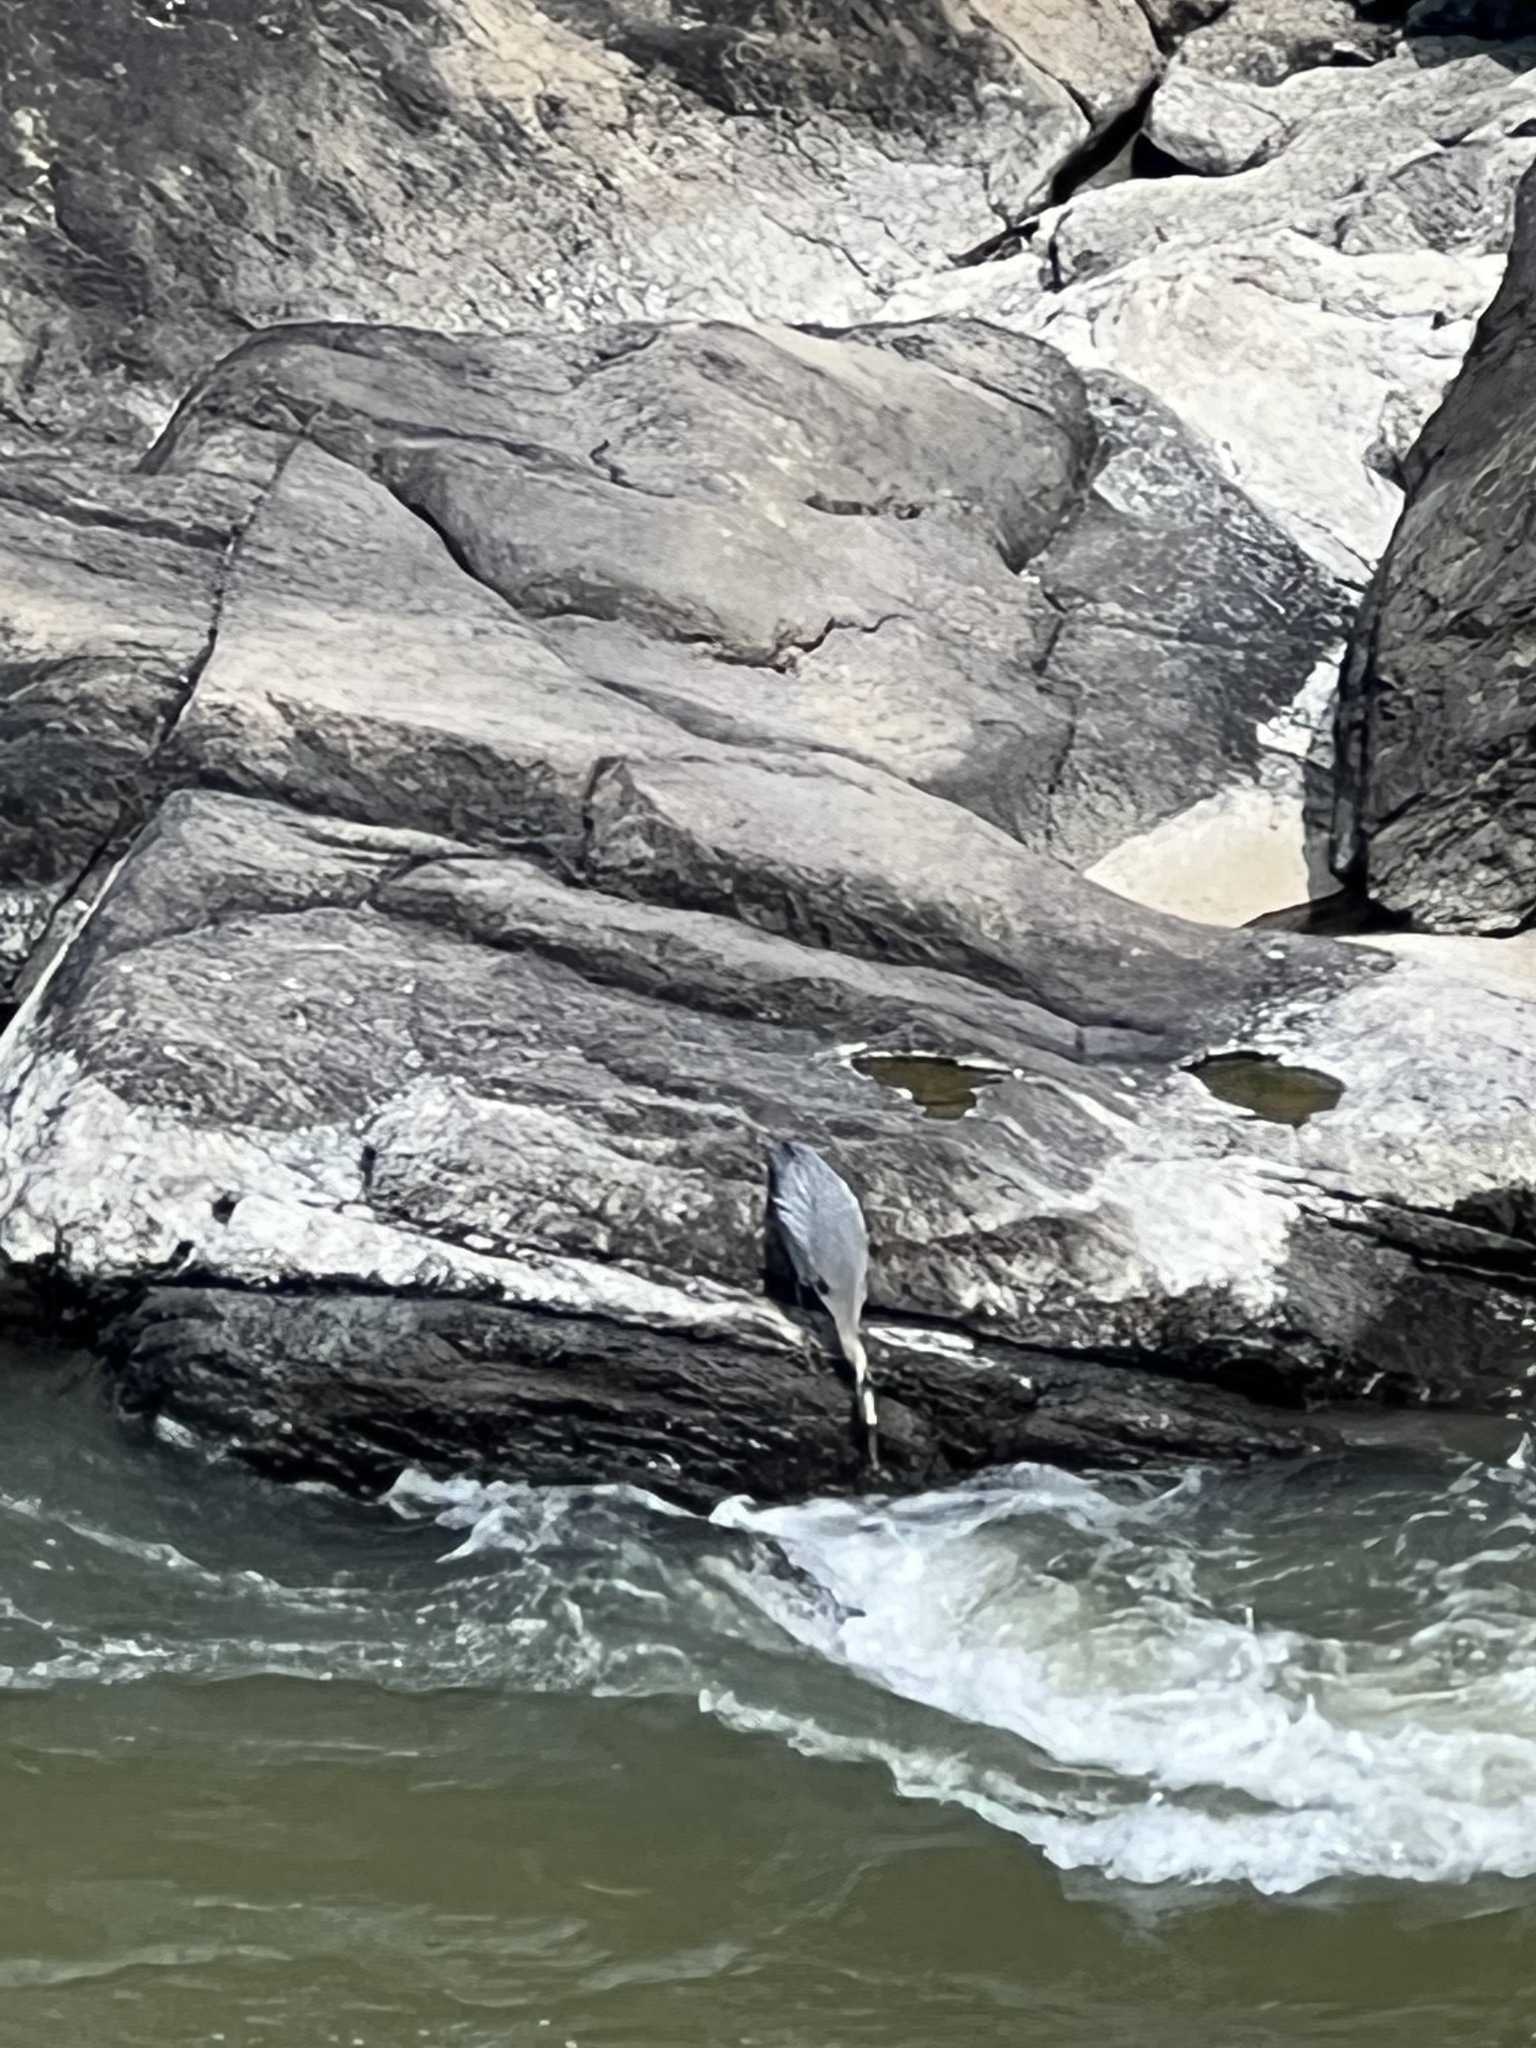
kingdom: Animalia
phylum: Chordata
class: Aves
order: Pelecaniformes
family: Ardeidae
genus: Ardea
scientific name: Ardea herodias
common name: Great blue heron
